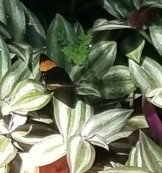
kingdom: Animalia
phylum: Arthropoda
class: Insecta
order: Lepidoptera
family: Nymphalidae
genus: Limenitis
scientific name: Limenitis melanthe
